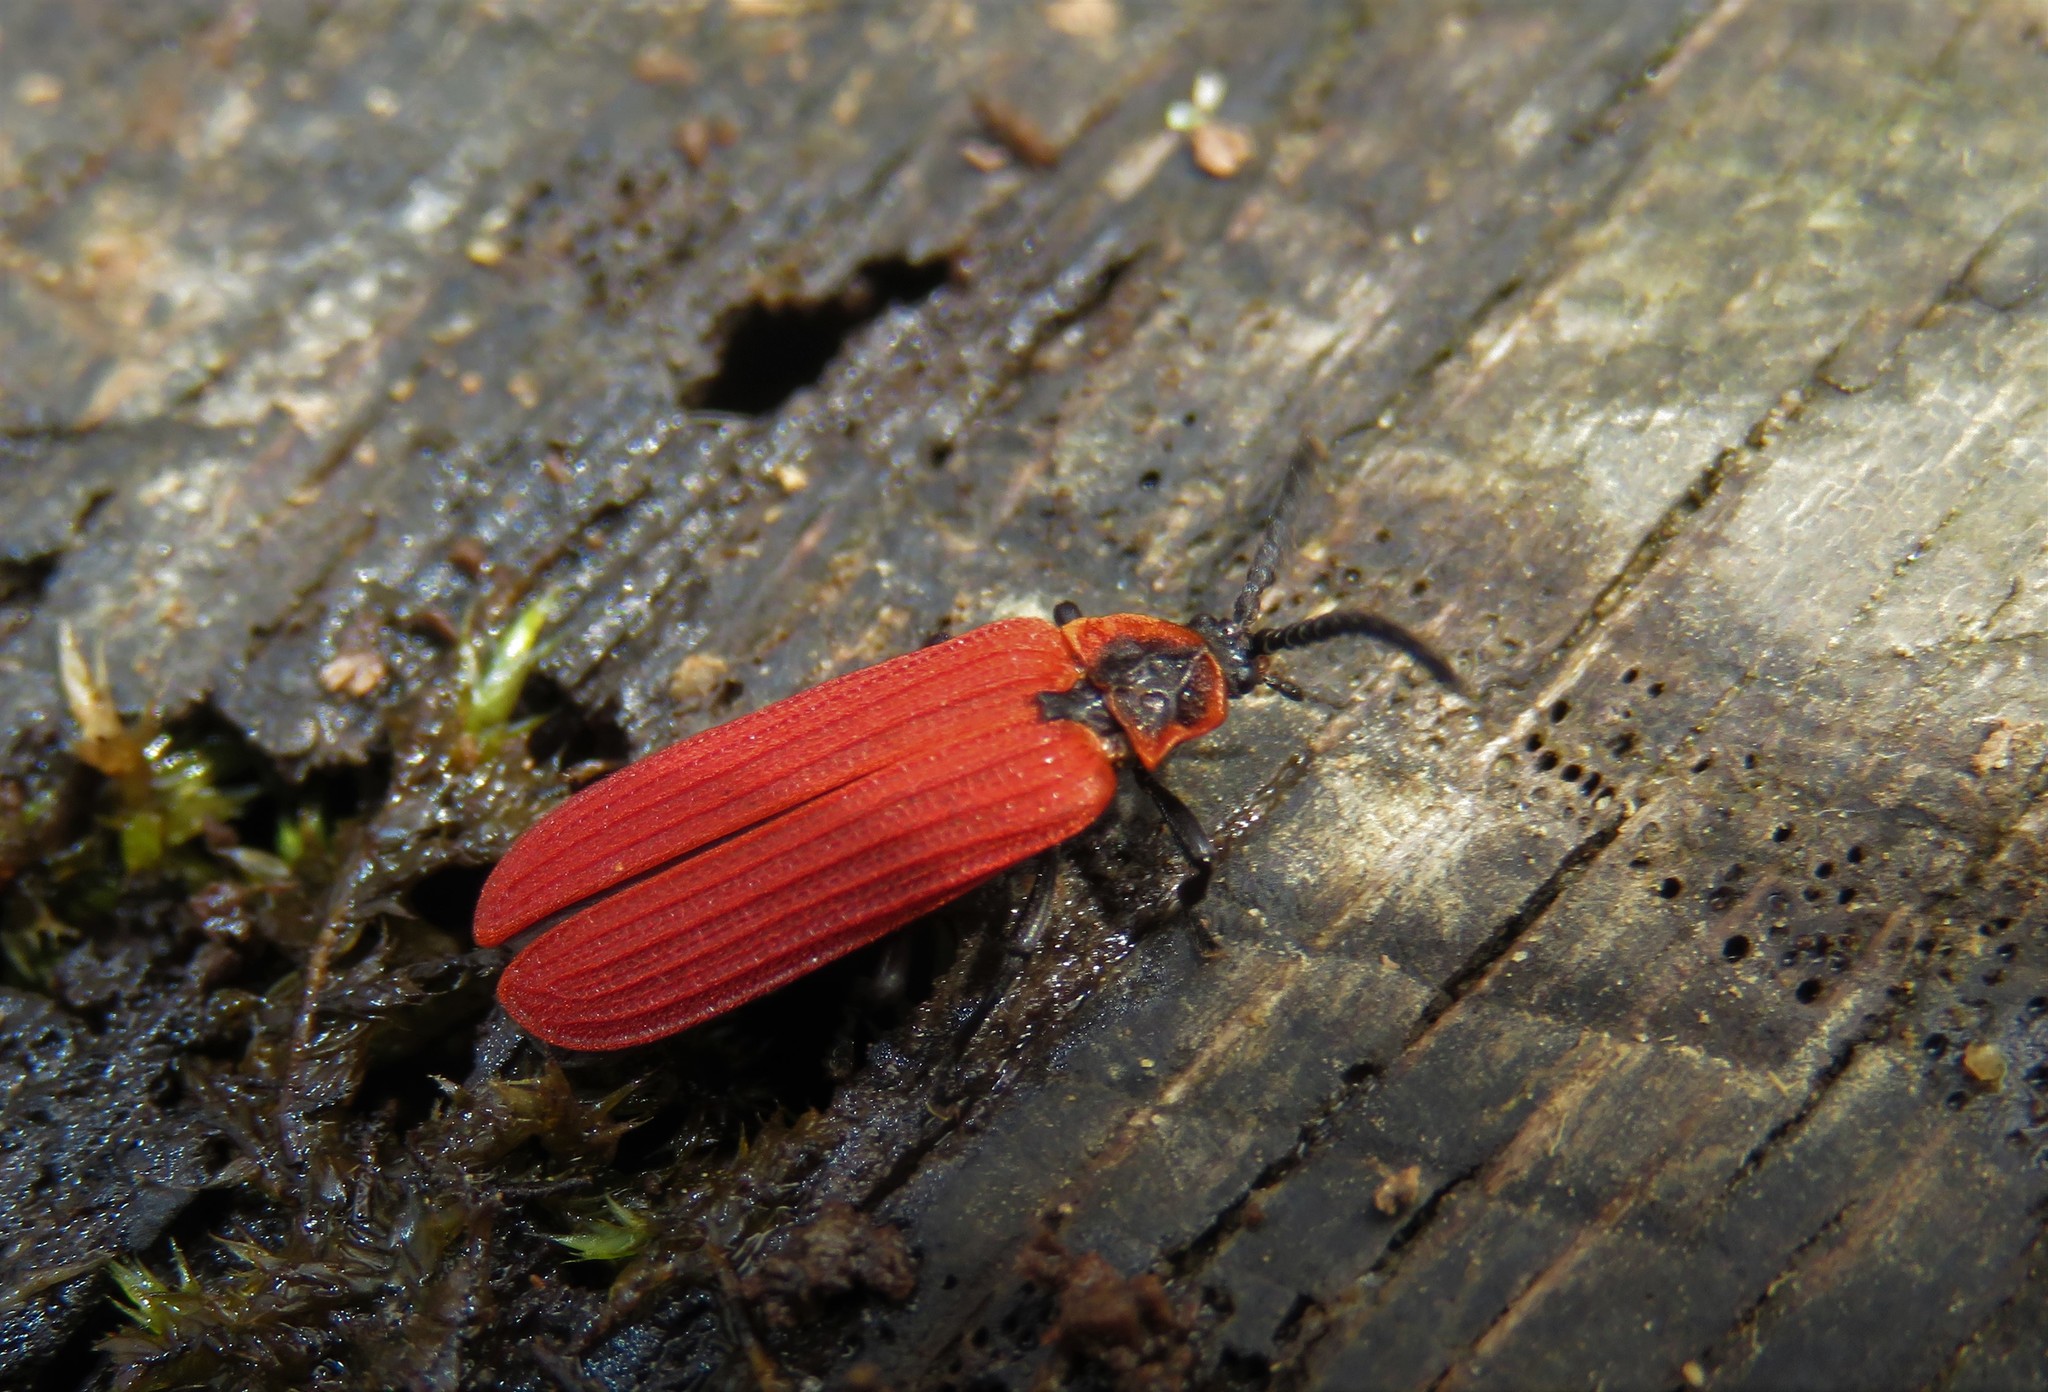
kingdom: Animalia
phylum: Arthropoda
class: Insecta
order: Coleoptera
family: Lycidae
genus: Dictyoptera
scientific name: Dictyoptera aurora
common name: Golden net-winged beetle
